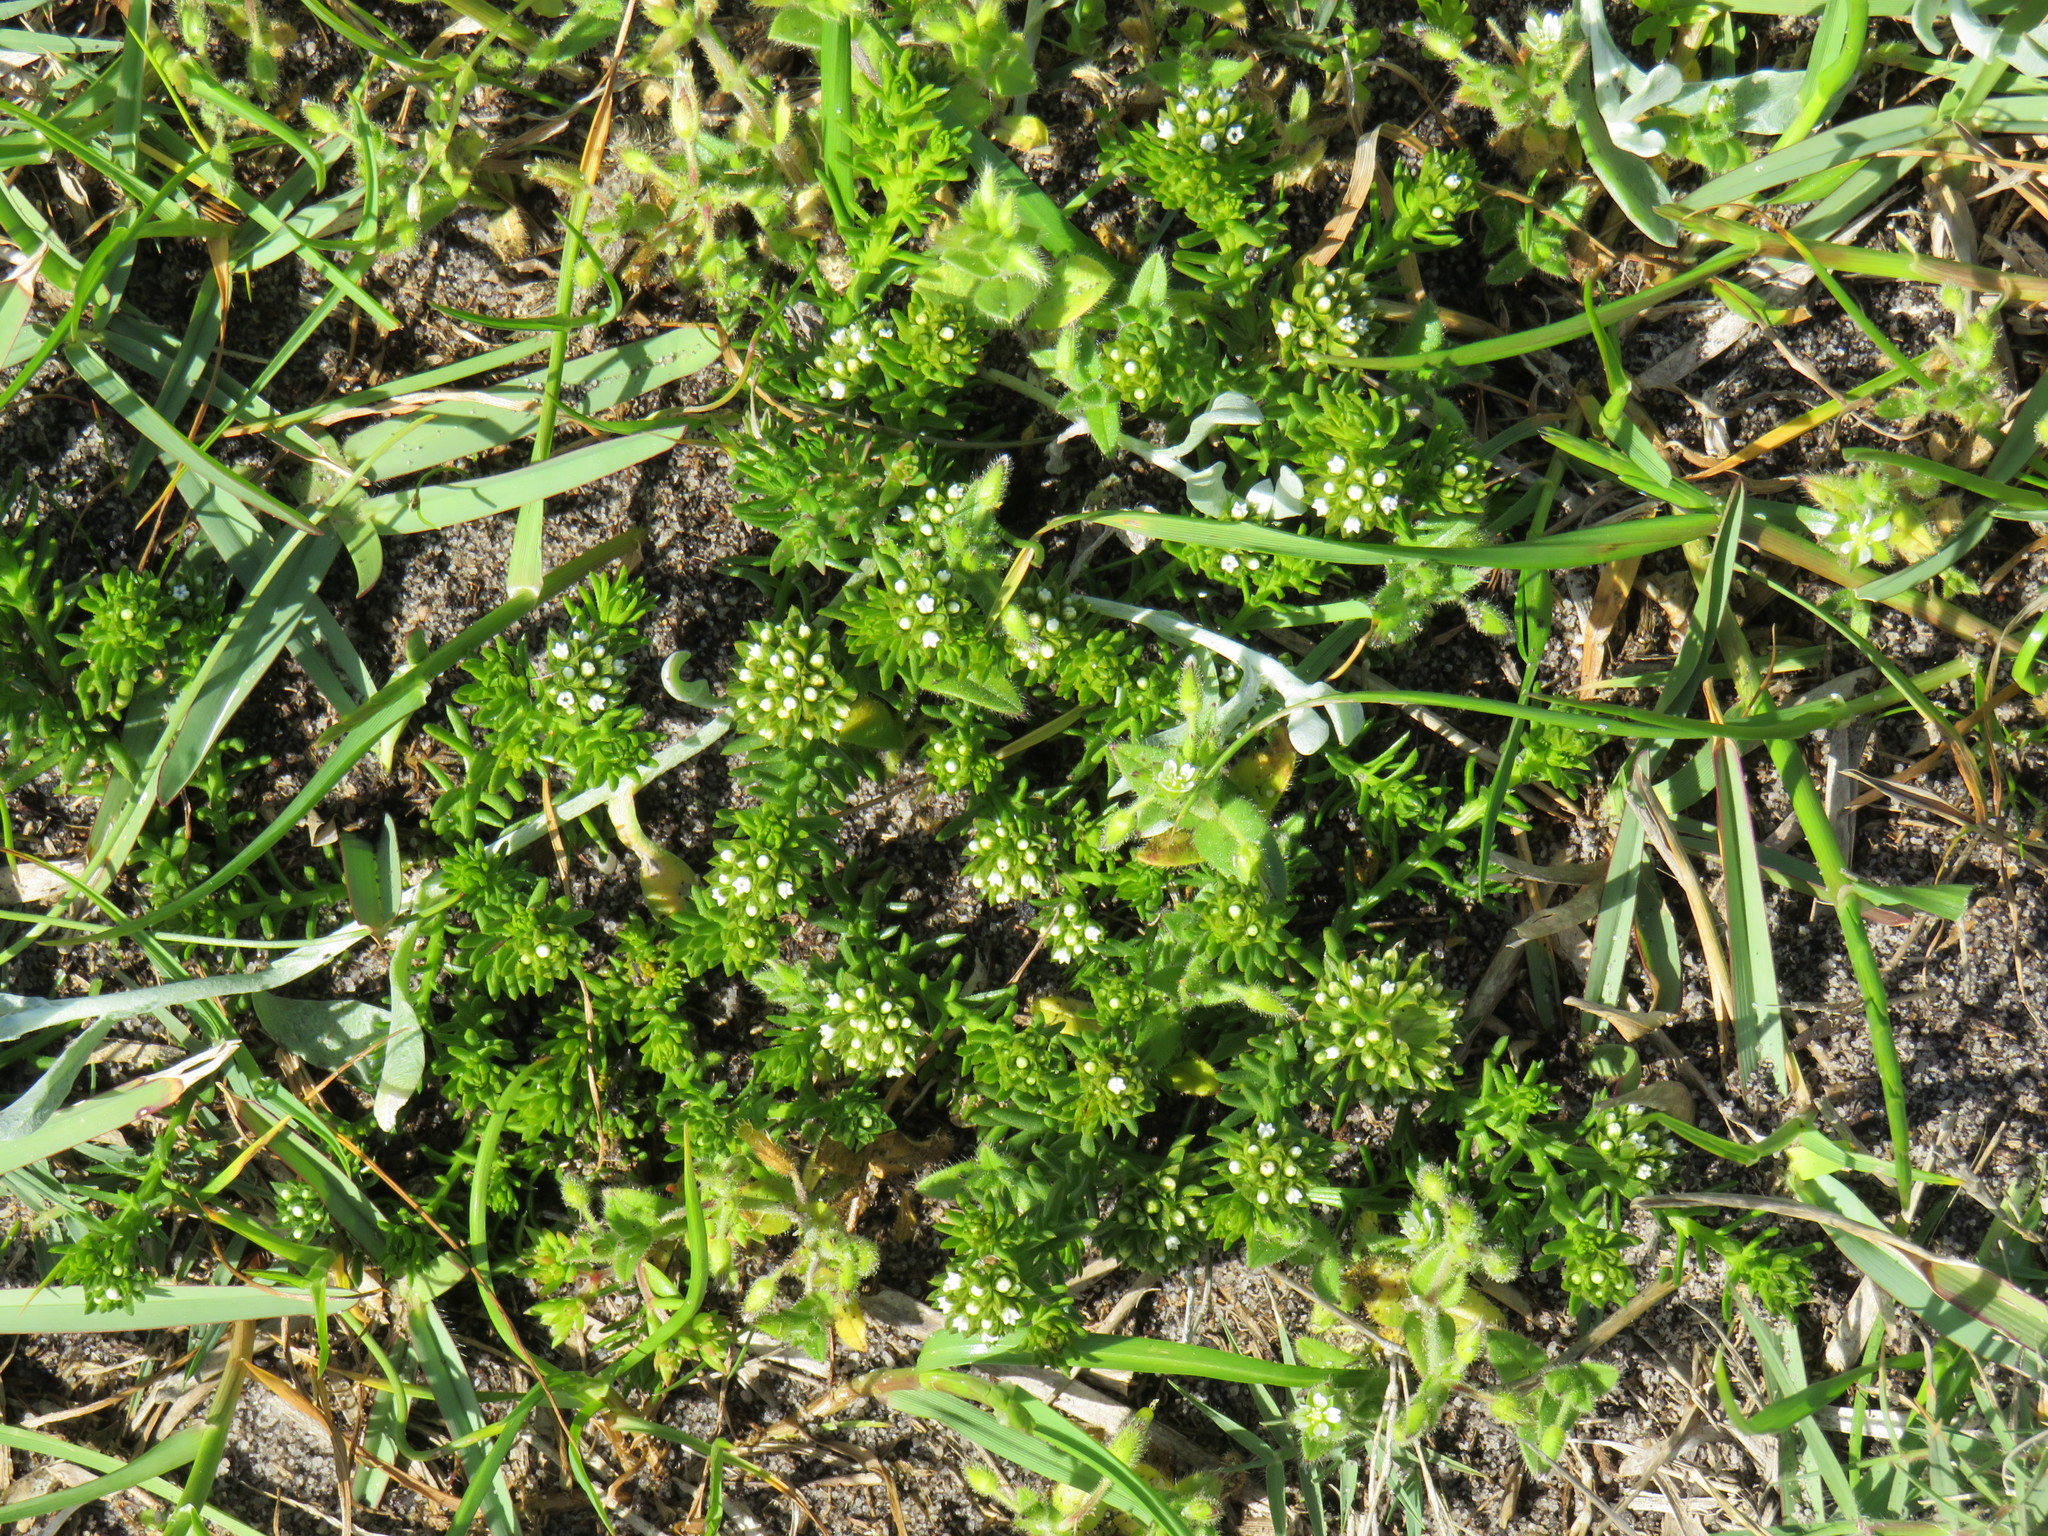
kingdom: Plantae
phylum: Tracheophyta
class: Magnoliopsida
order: Santalales
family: Thesiaceae
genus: Thesium
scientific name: Thesium viridifolium
